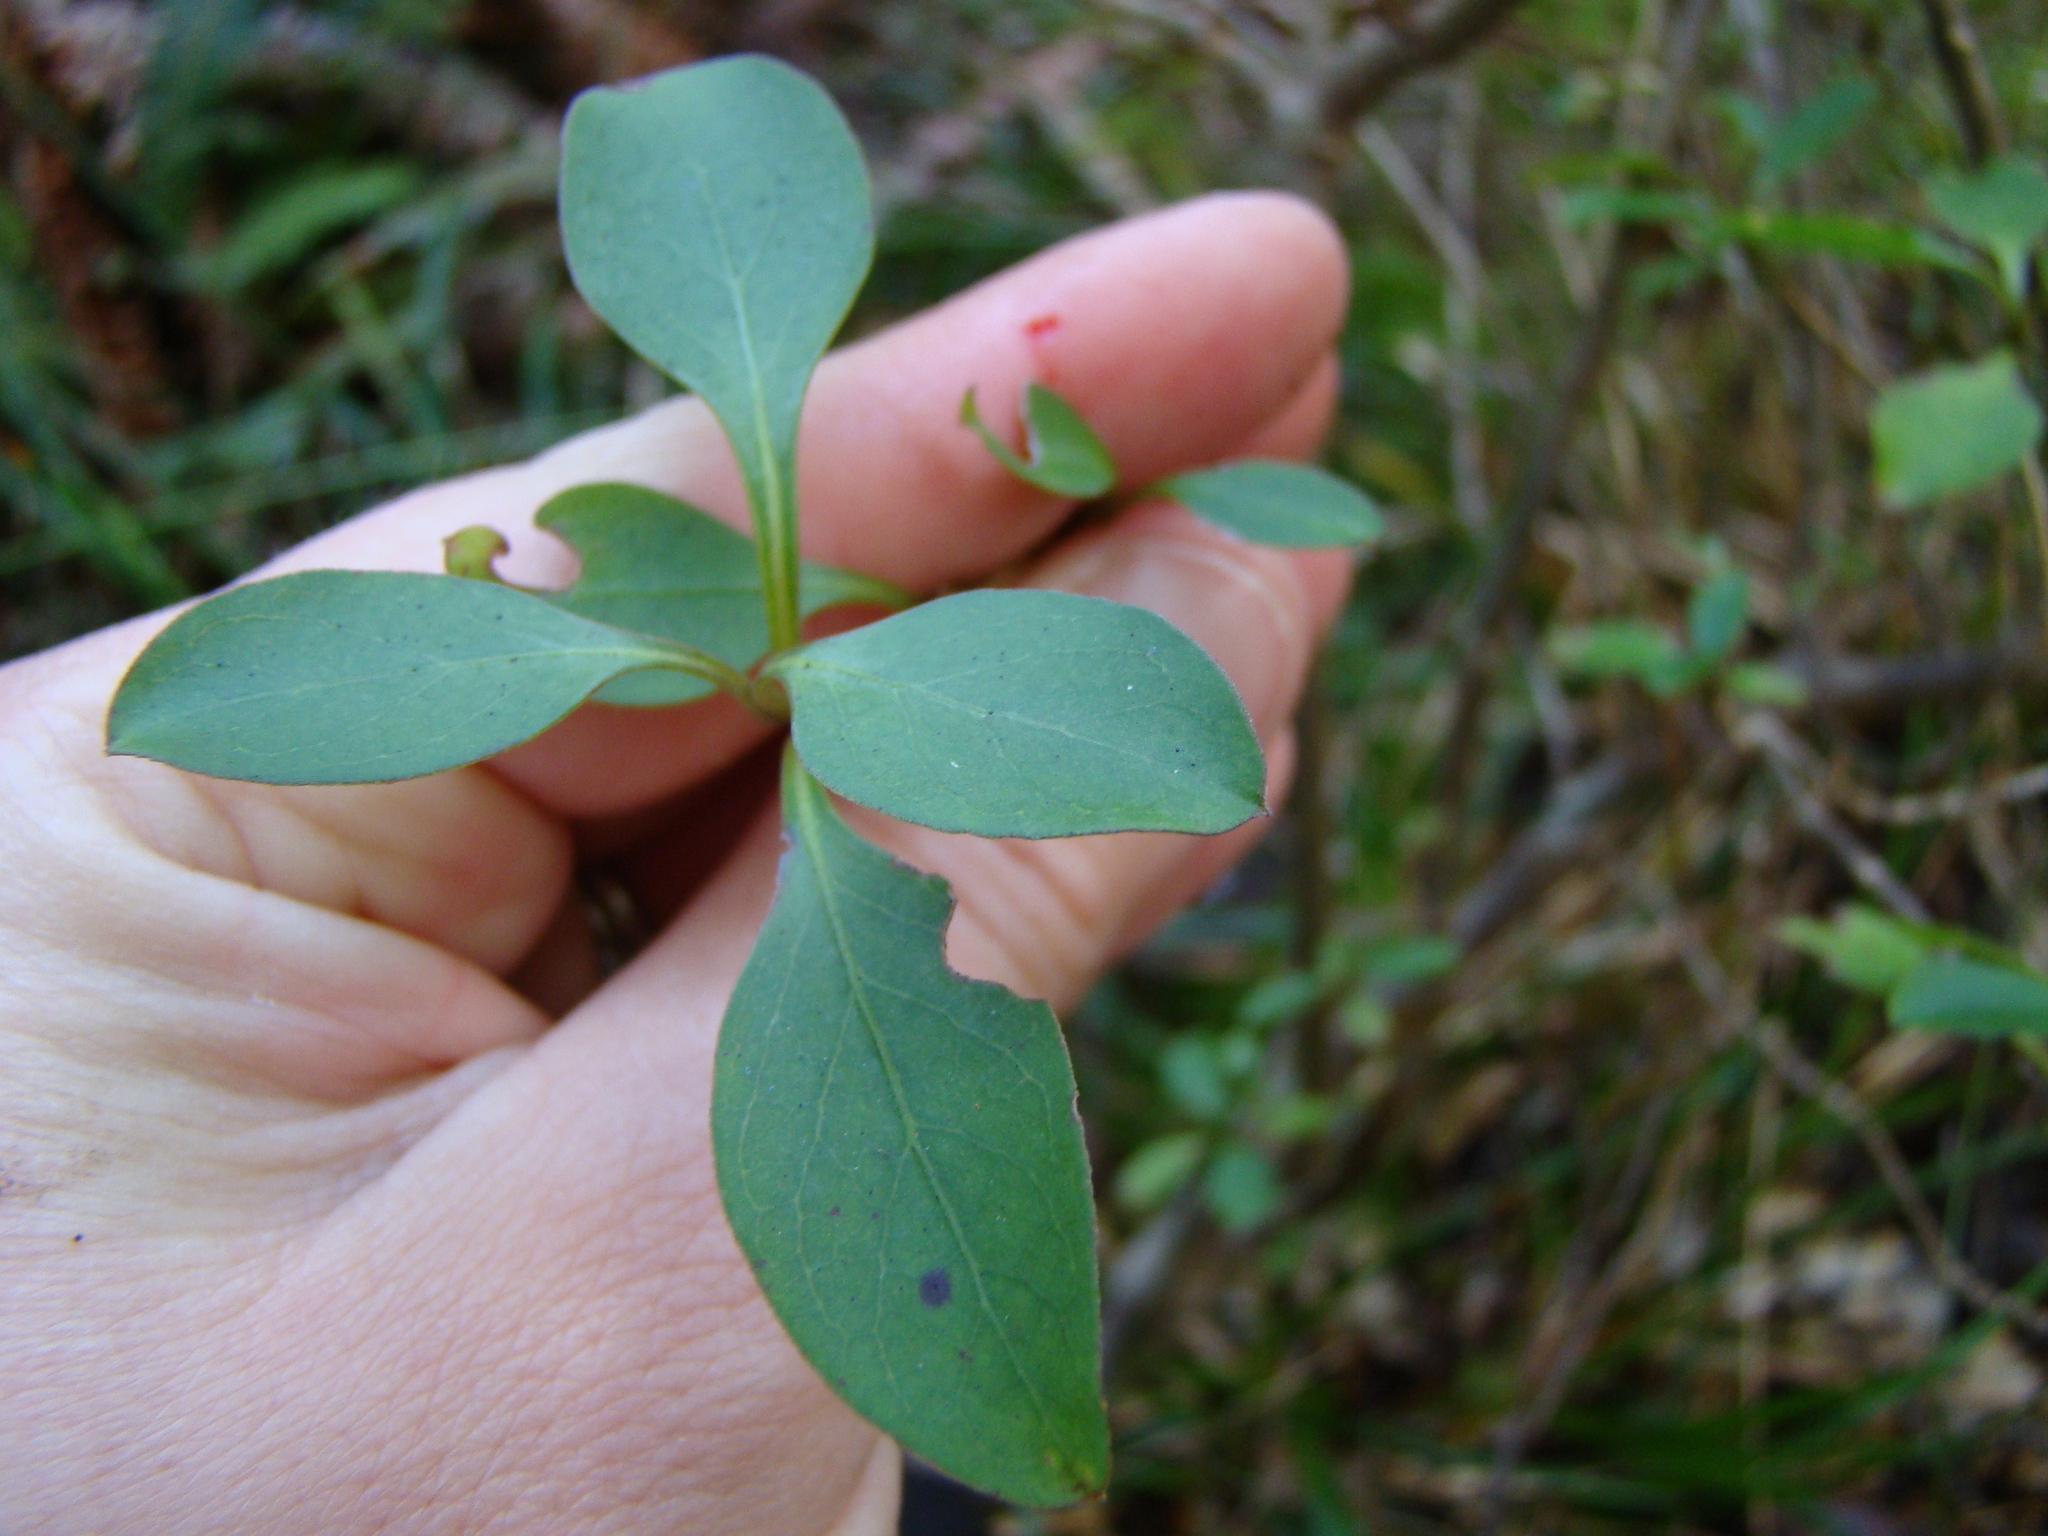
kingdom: Plantae
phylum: Tracheophyta
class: Magnoliopsida
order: Gentianales
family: Rubiaceae
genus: Coprosma
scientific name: Coprosma foetidissima
